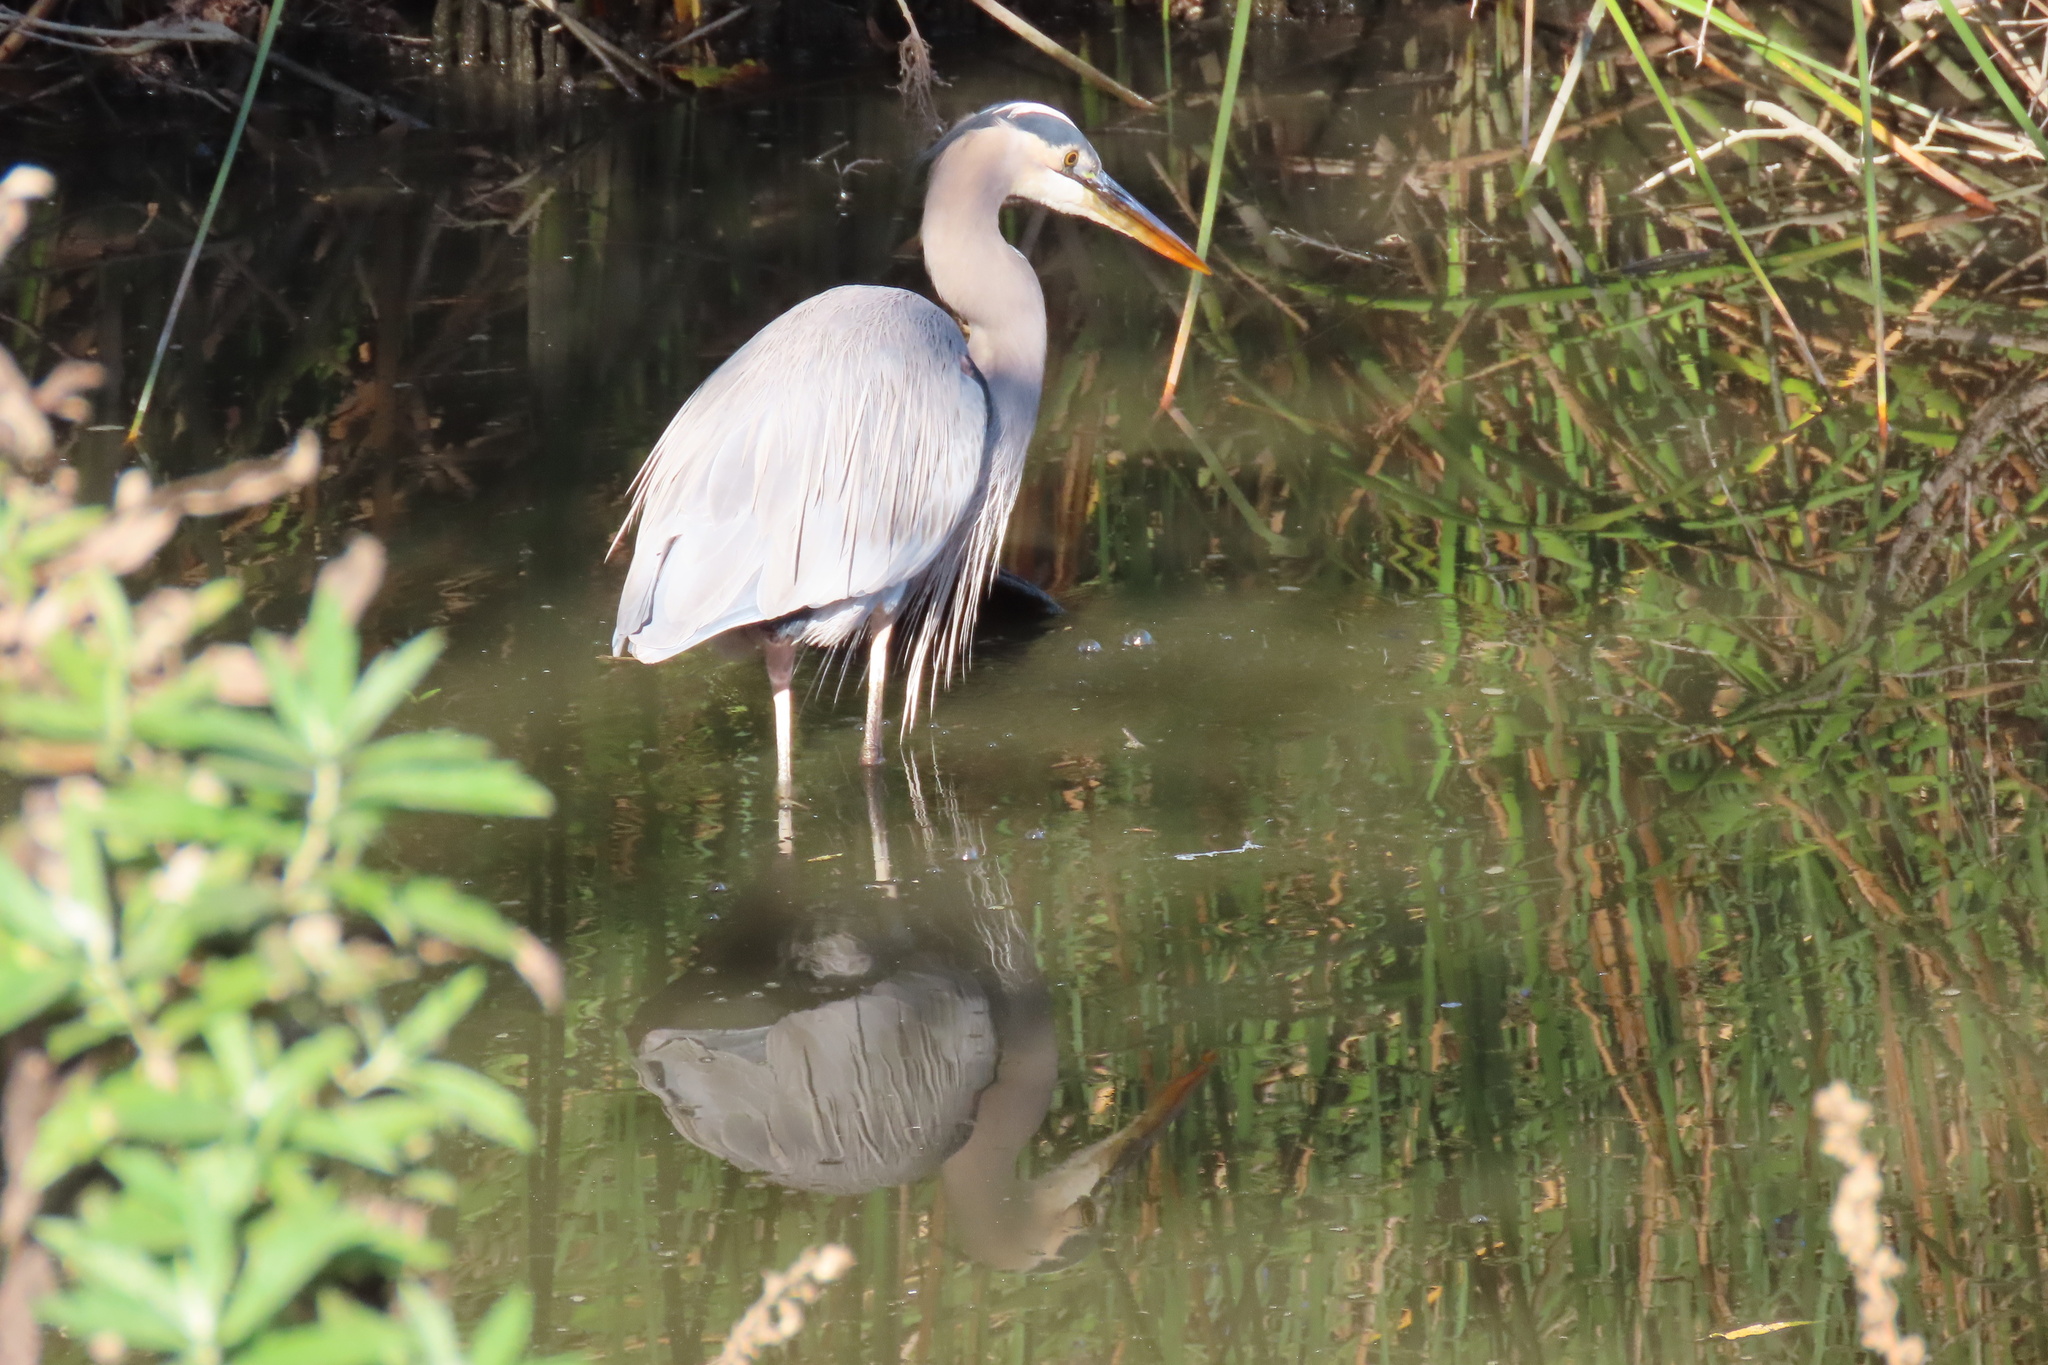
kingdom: Animalia
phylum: Chordata
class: Aves
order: Pelecaniformes
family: Ardeidae
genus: Ardea
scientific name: Ardea herodias
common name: Great blue heron
